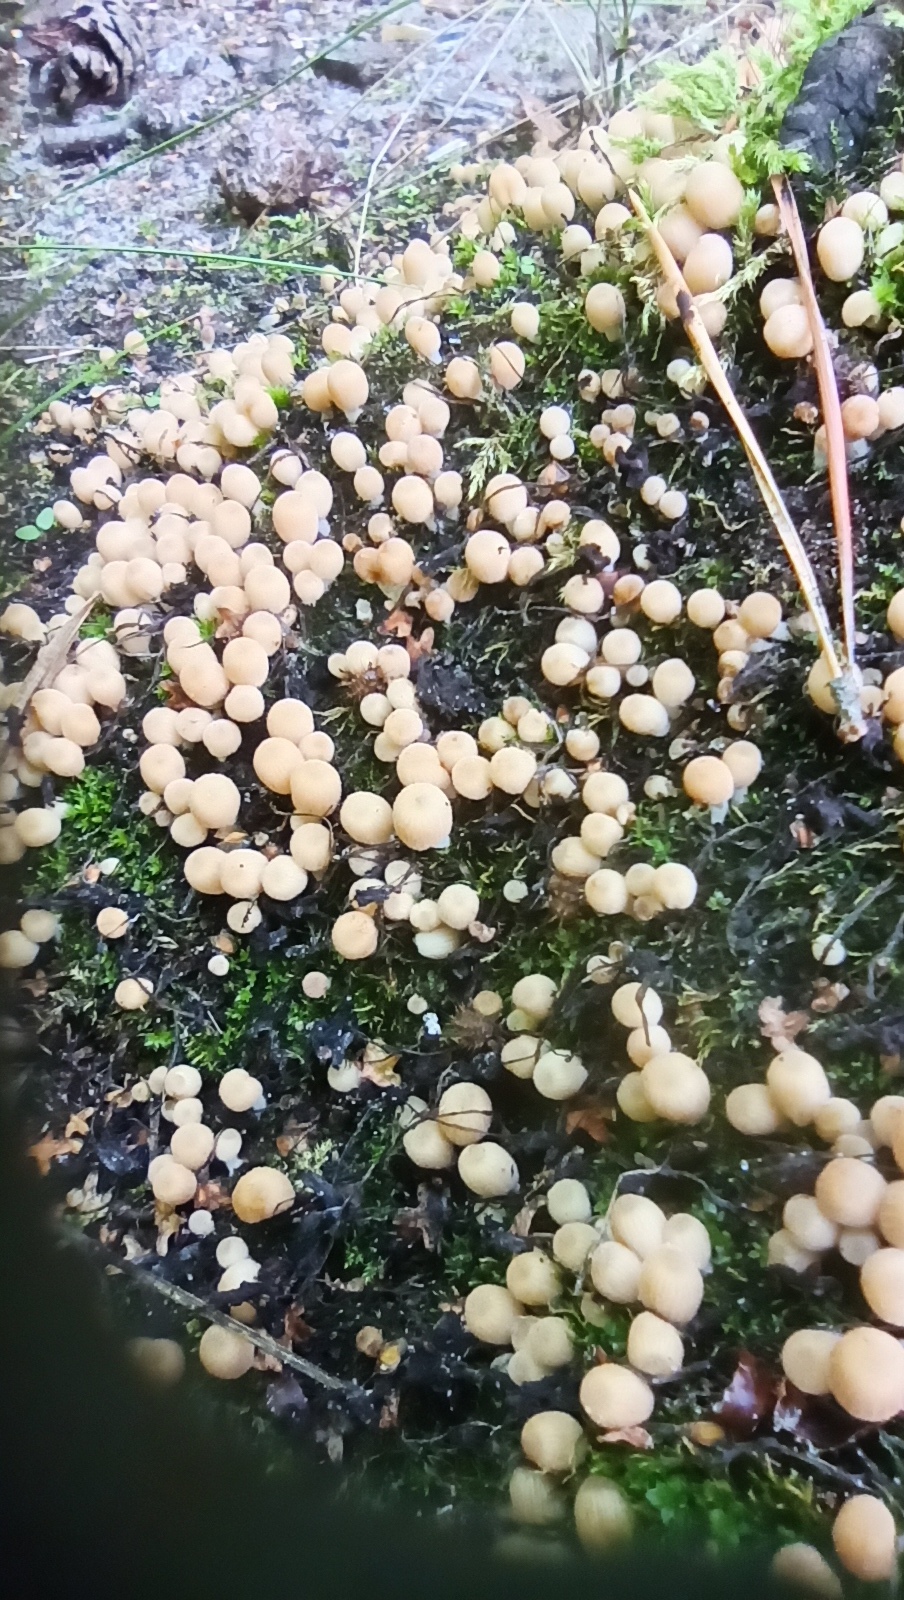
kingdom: Fungi
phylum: Basidiomycota
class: Agaricomycetes
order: Agaricales
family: Psathyrellaceae
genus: Coprinellus
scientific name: Coprinellus disseminatus
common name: Fairies' bonnets
